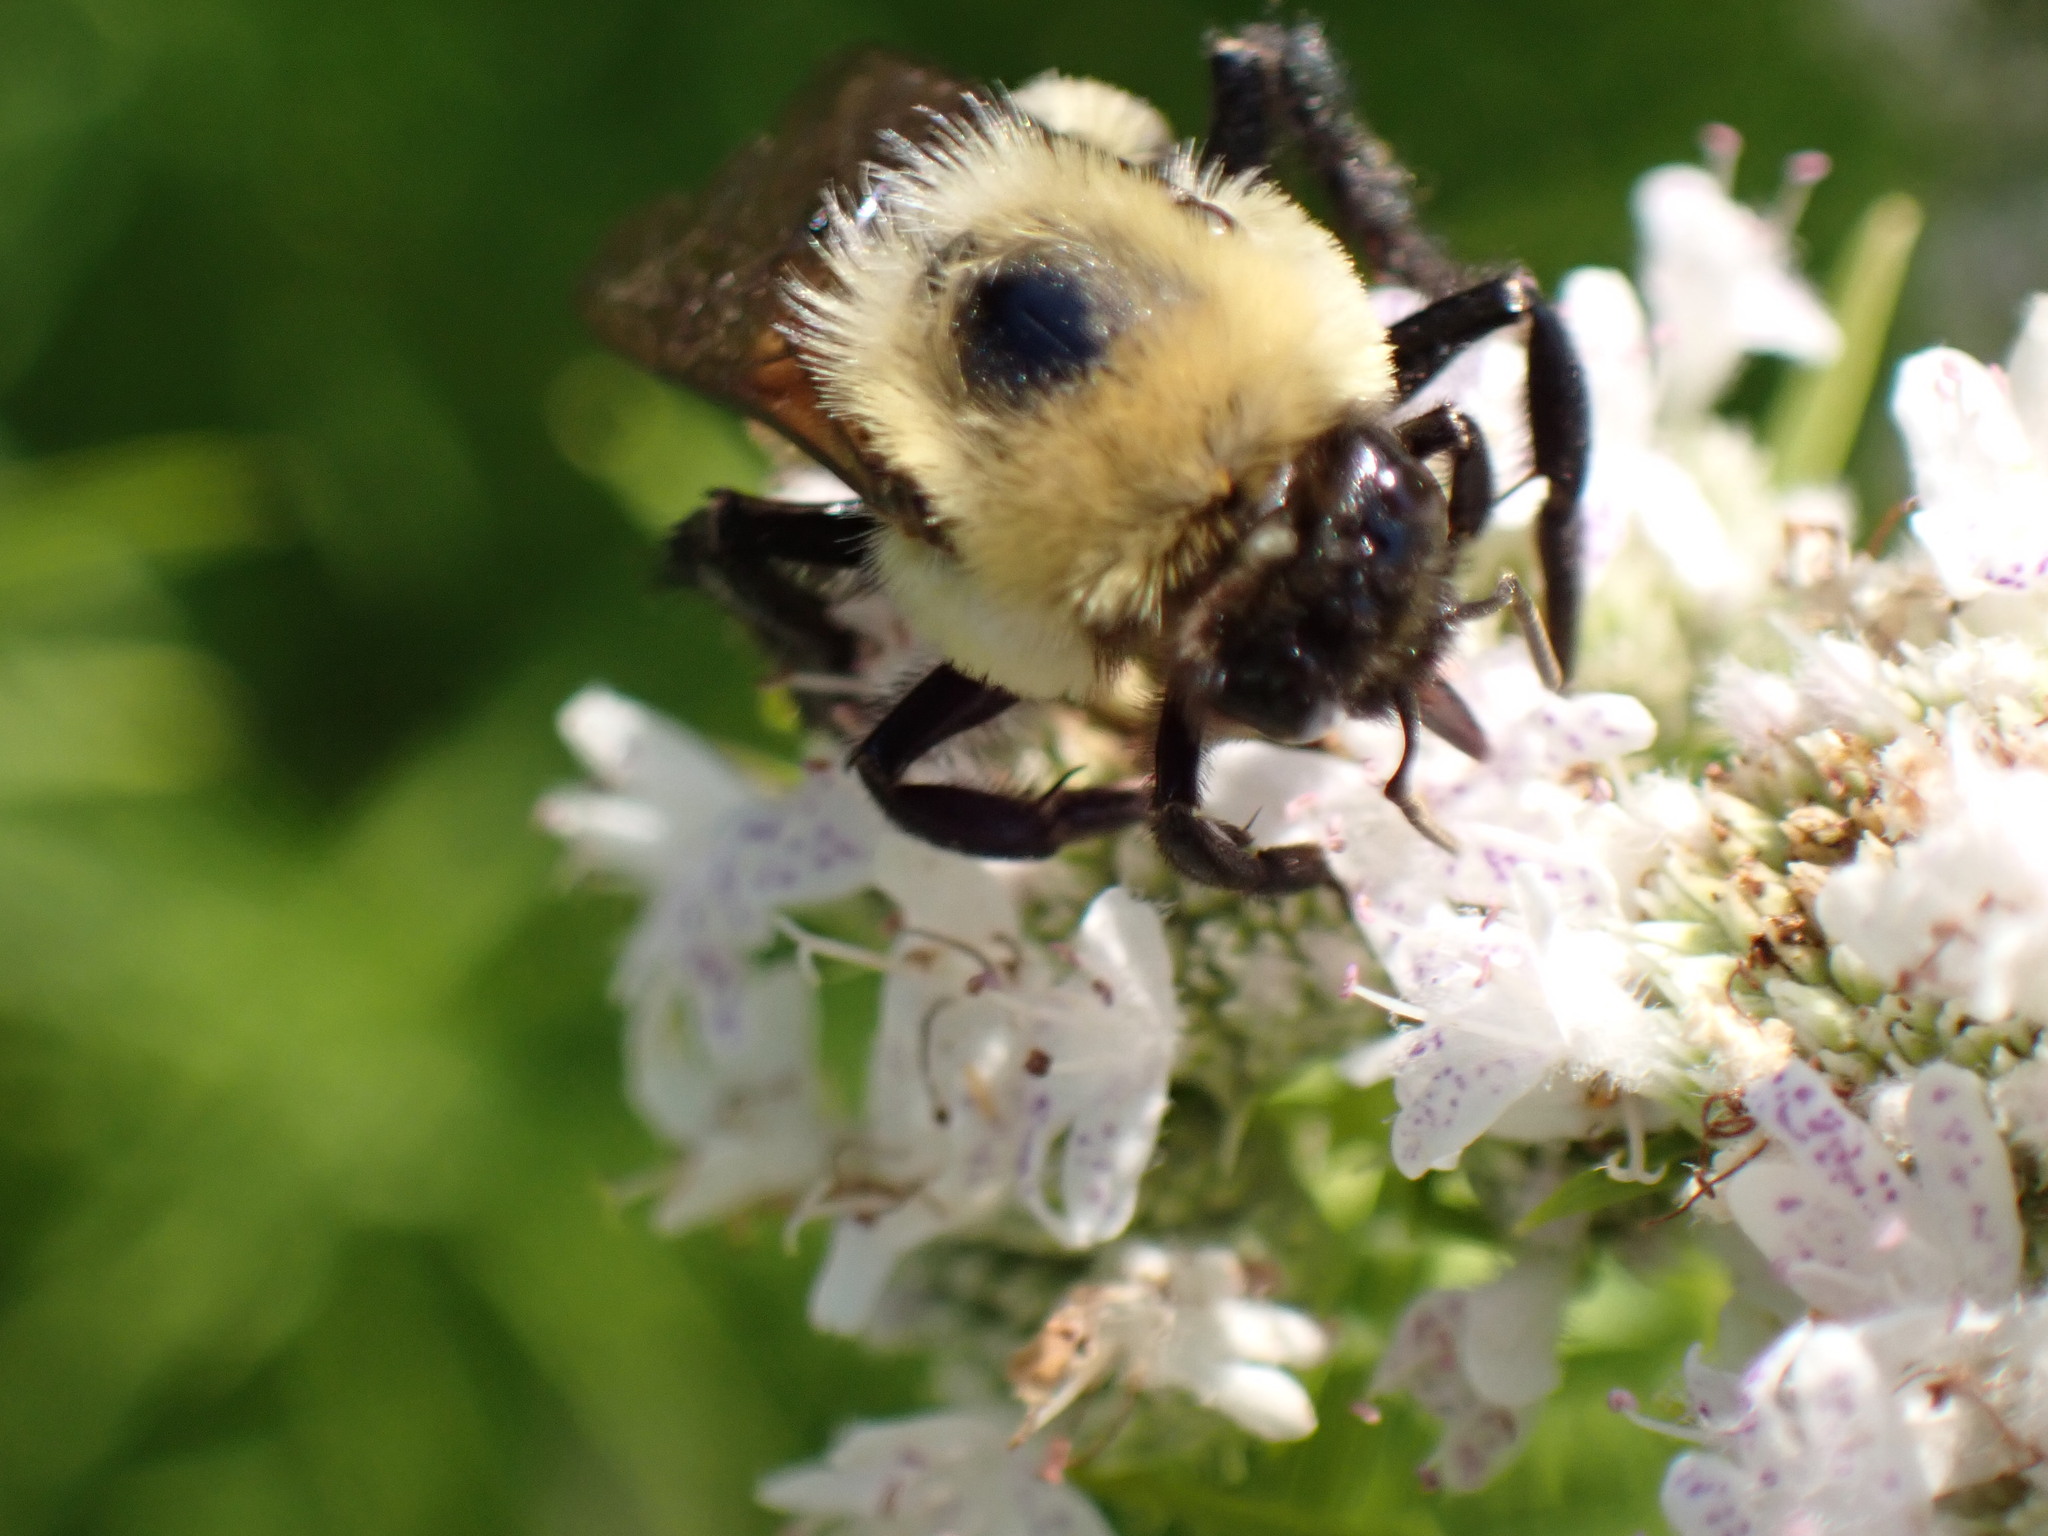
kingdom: Animalia
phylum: Arthropoda
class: Insecta
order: Hymenoptera
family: Apidae
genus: Bombus
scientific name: Bombus griseocollis
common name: Brown-belted bumble bee
